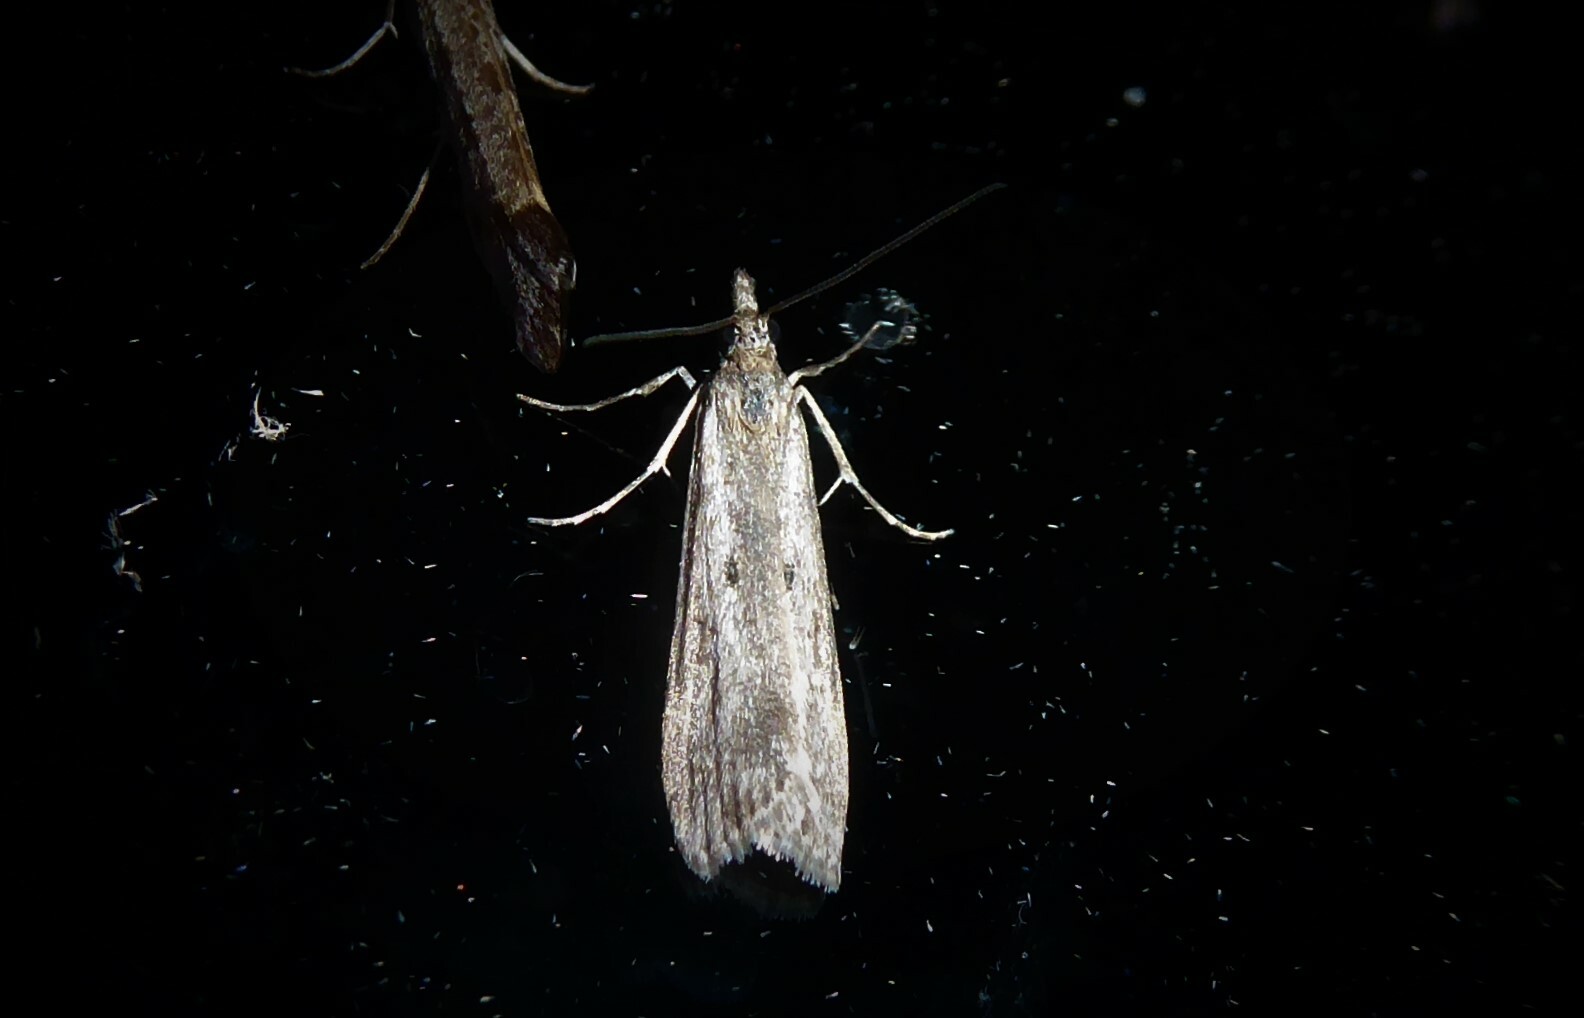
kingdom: Animalia
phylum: Arthropoda
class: Insecta
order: Lepidoptera
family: Crambidae
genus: Eudonia
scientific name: Eudonia leptalea
